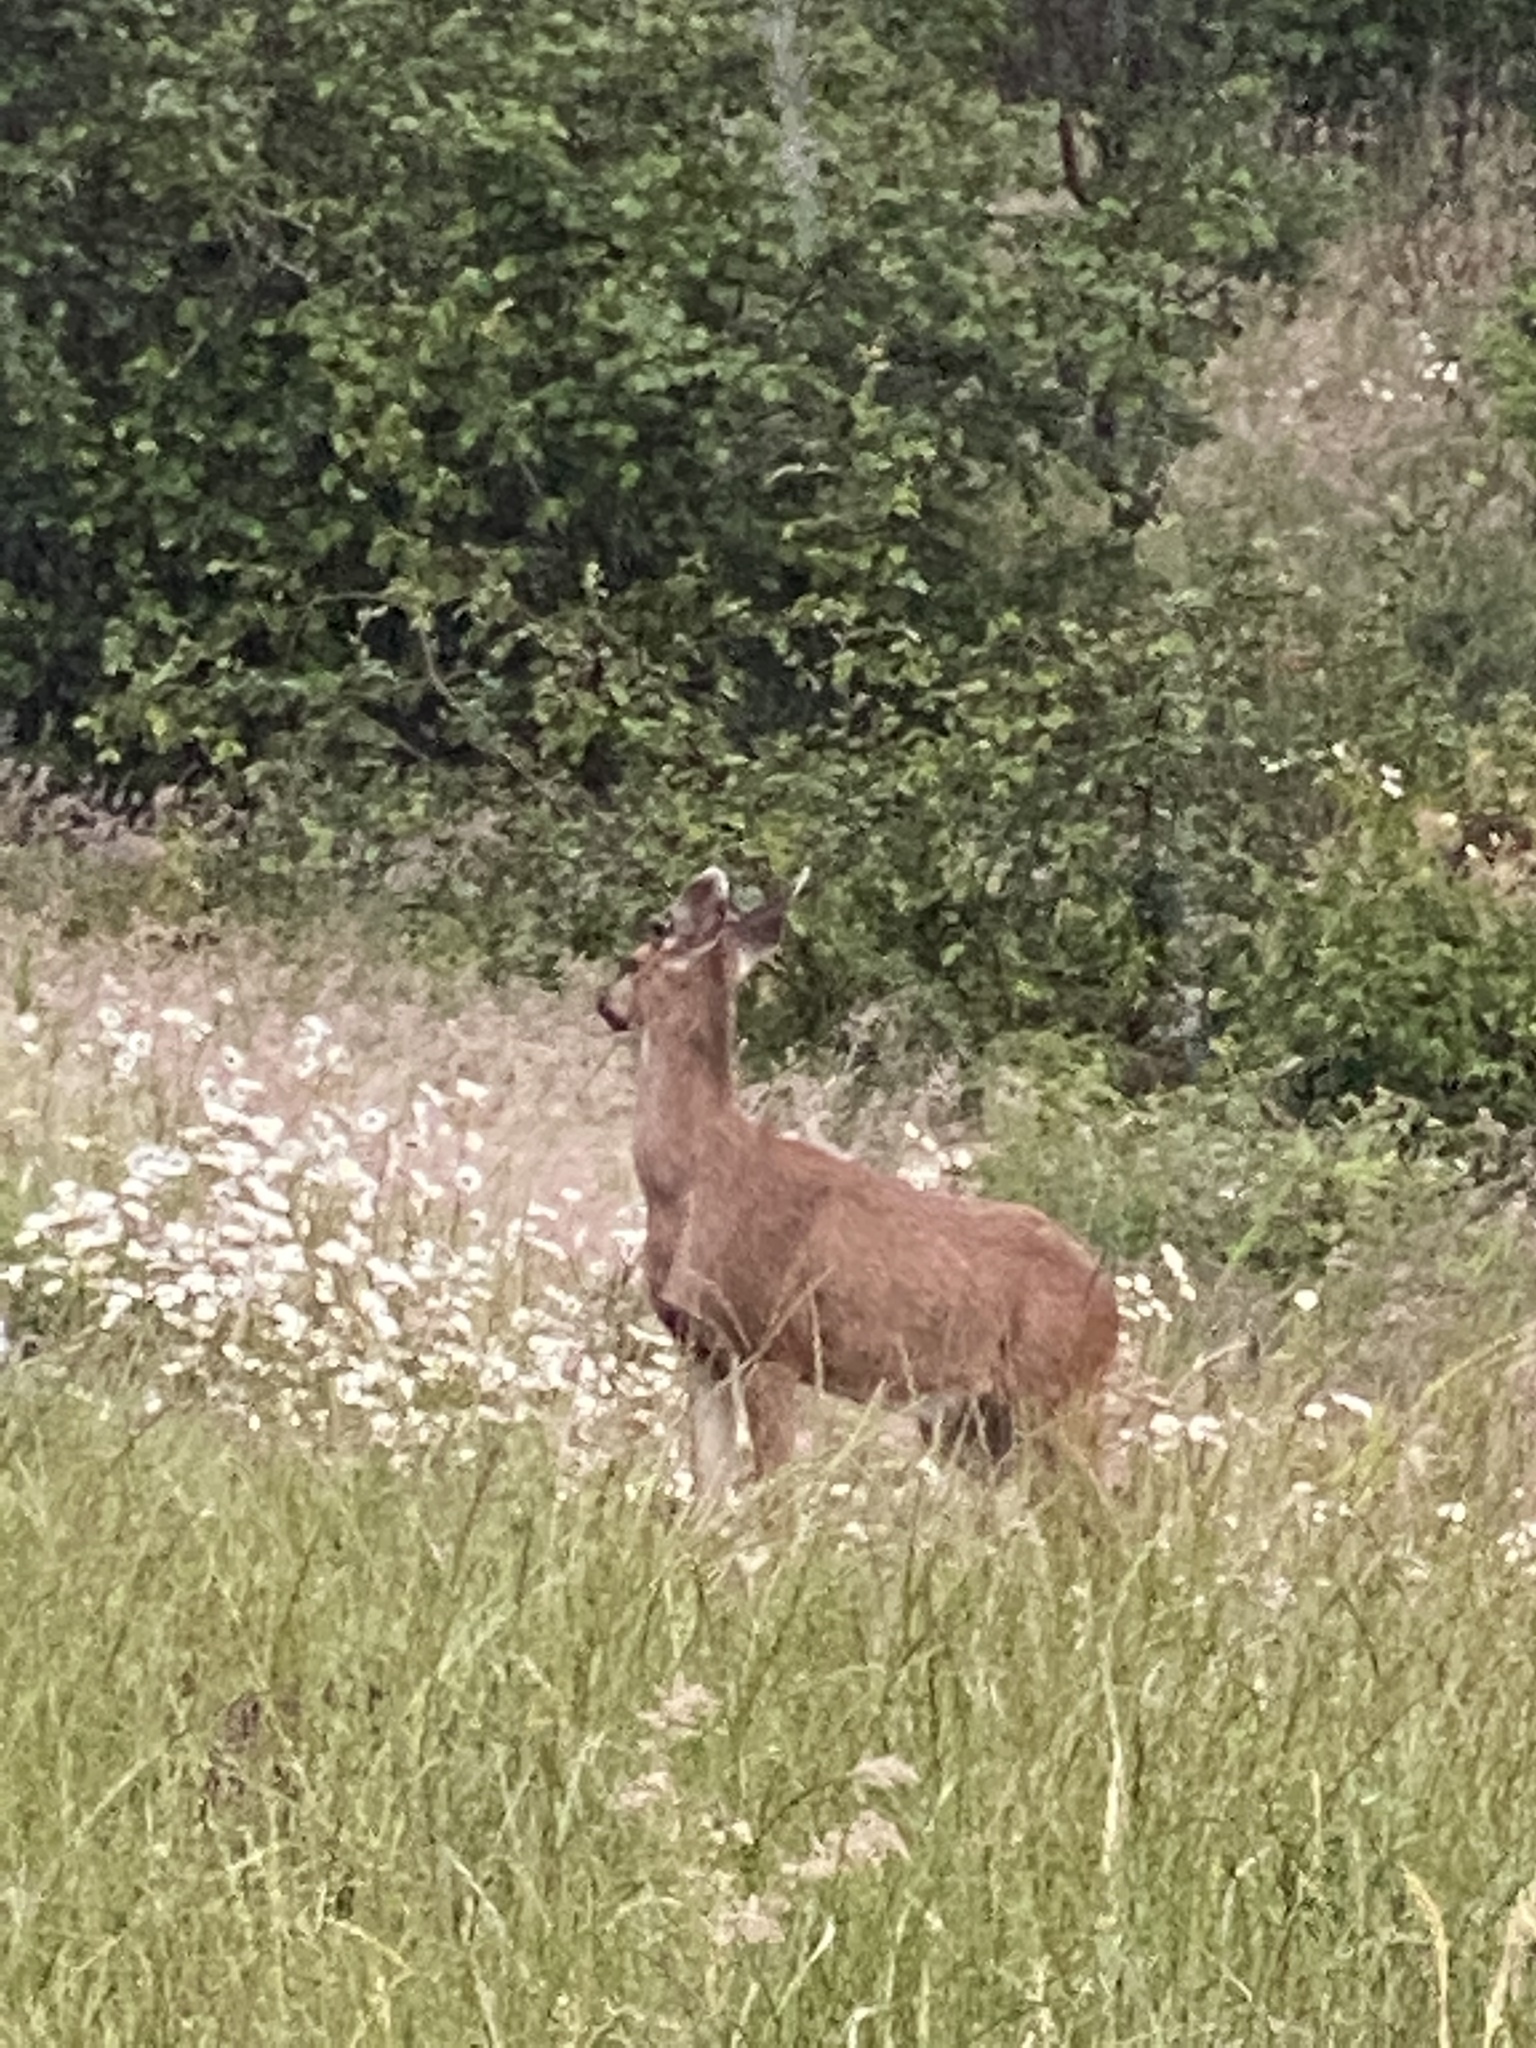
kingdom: Animalia
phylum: Chordata
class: Mammalia
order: Artiodactyla
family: Cervidae
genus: Odocoileus
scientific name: Odocoileus hemionus
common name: Mule deer
